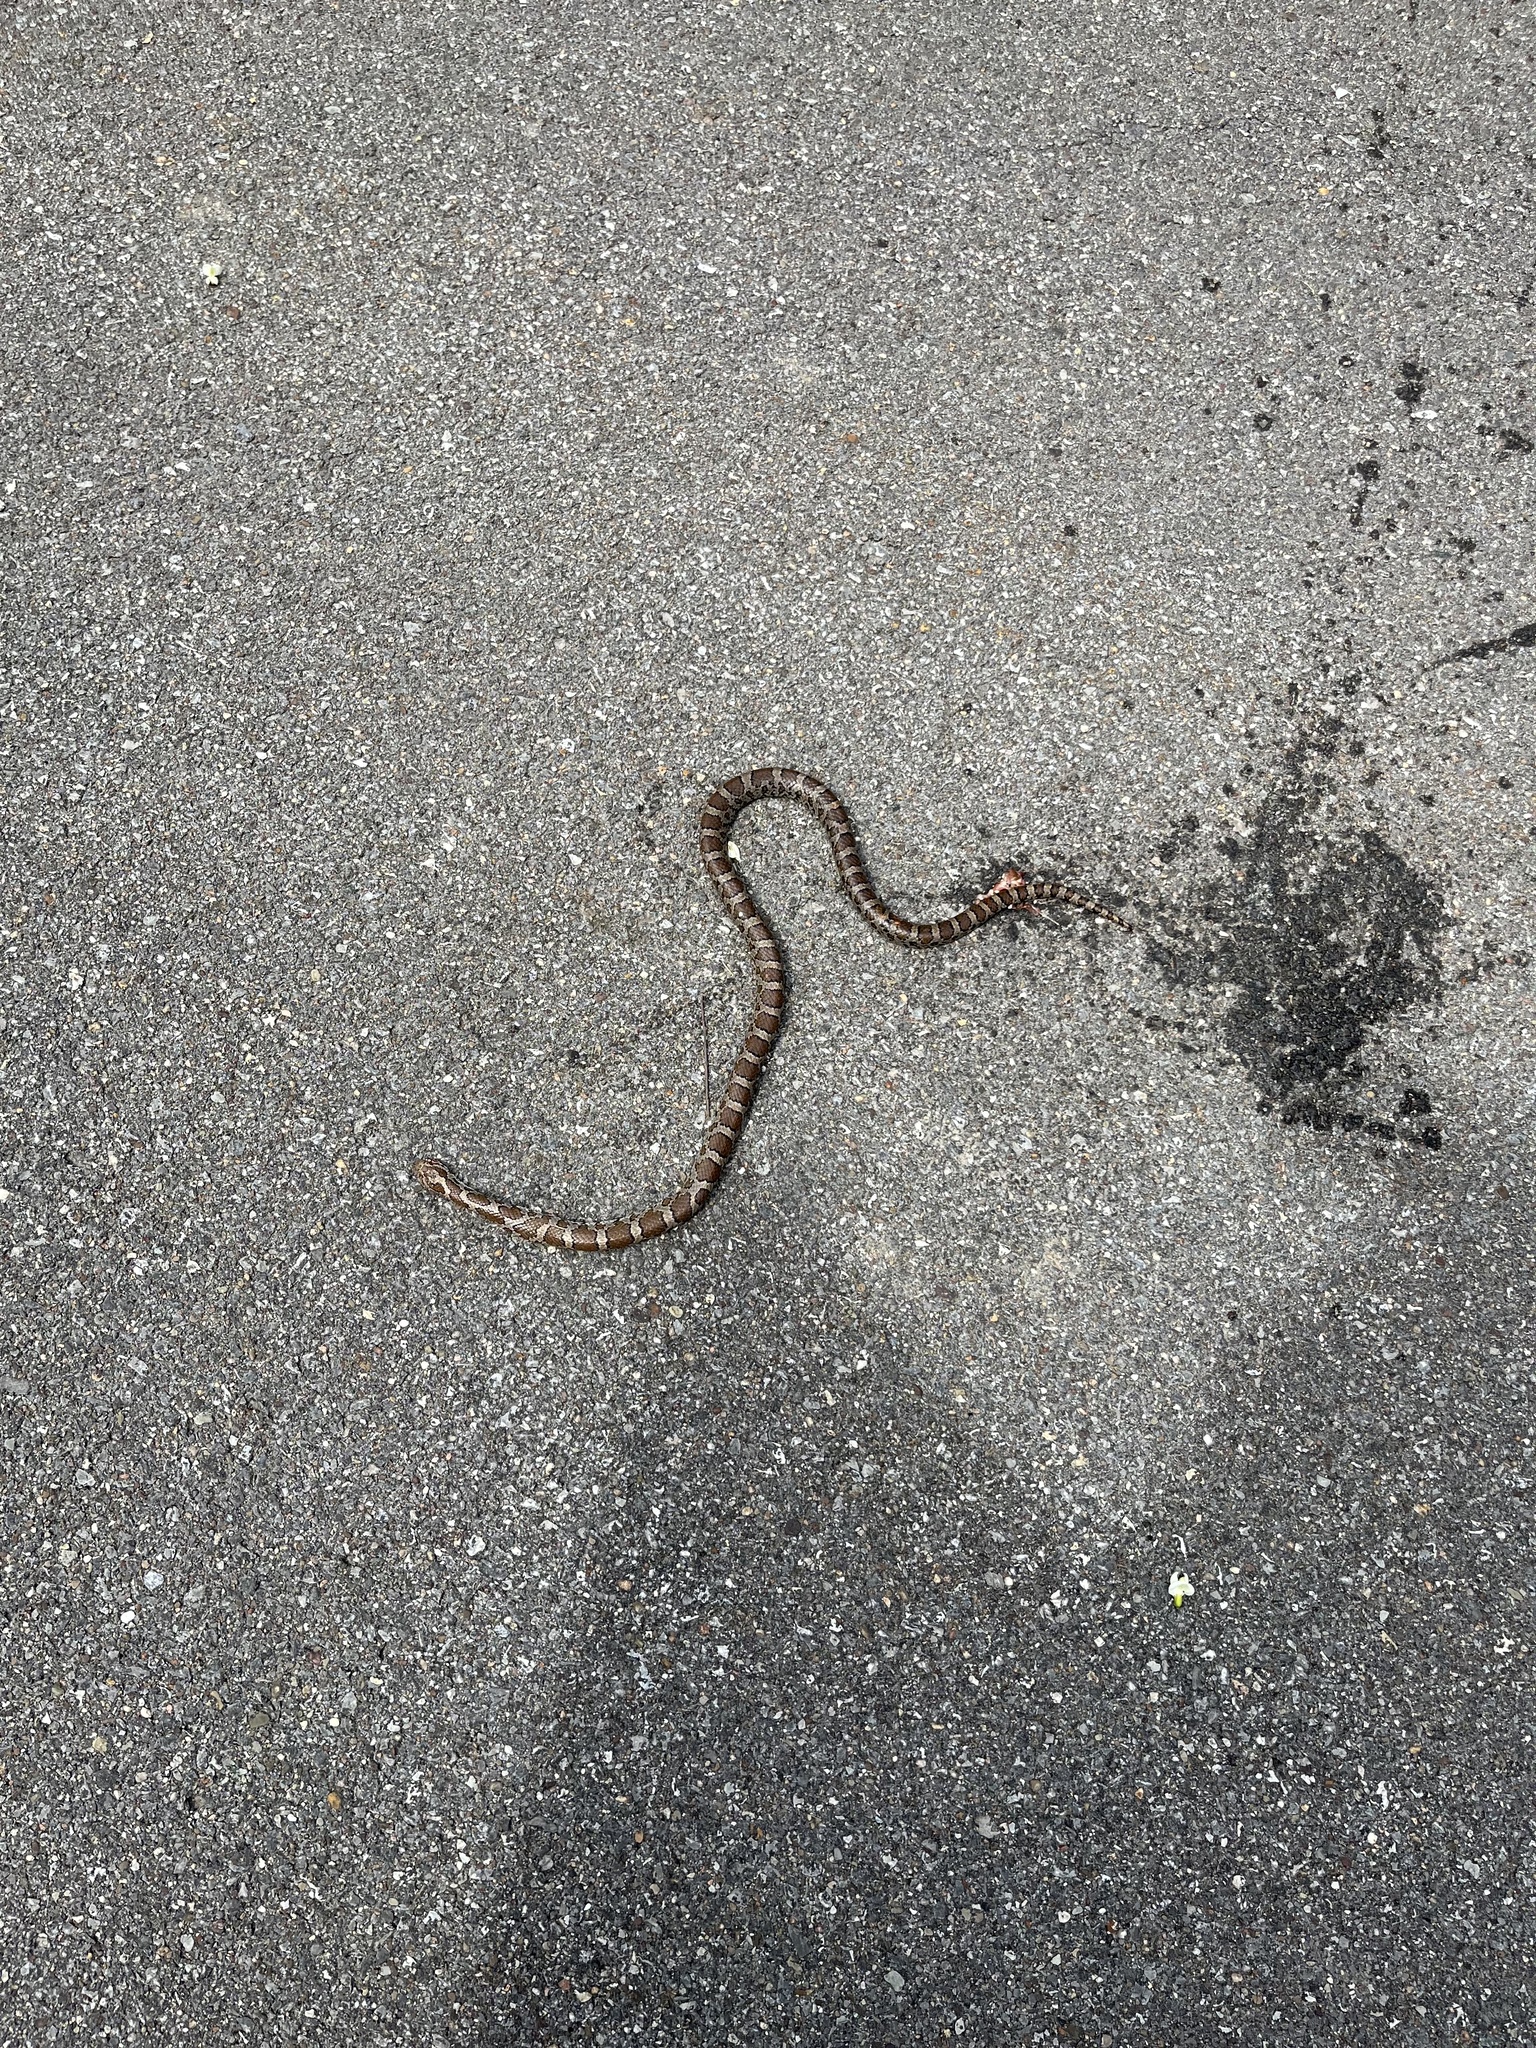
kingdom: Animalia
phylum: Chordata
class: Squamata
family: Colubridae
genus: Lampropeltis
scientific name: Lampropeltis triangulum
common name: Eastern milksnake
